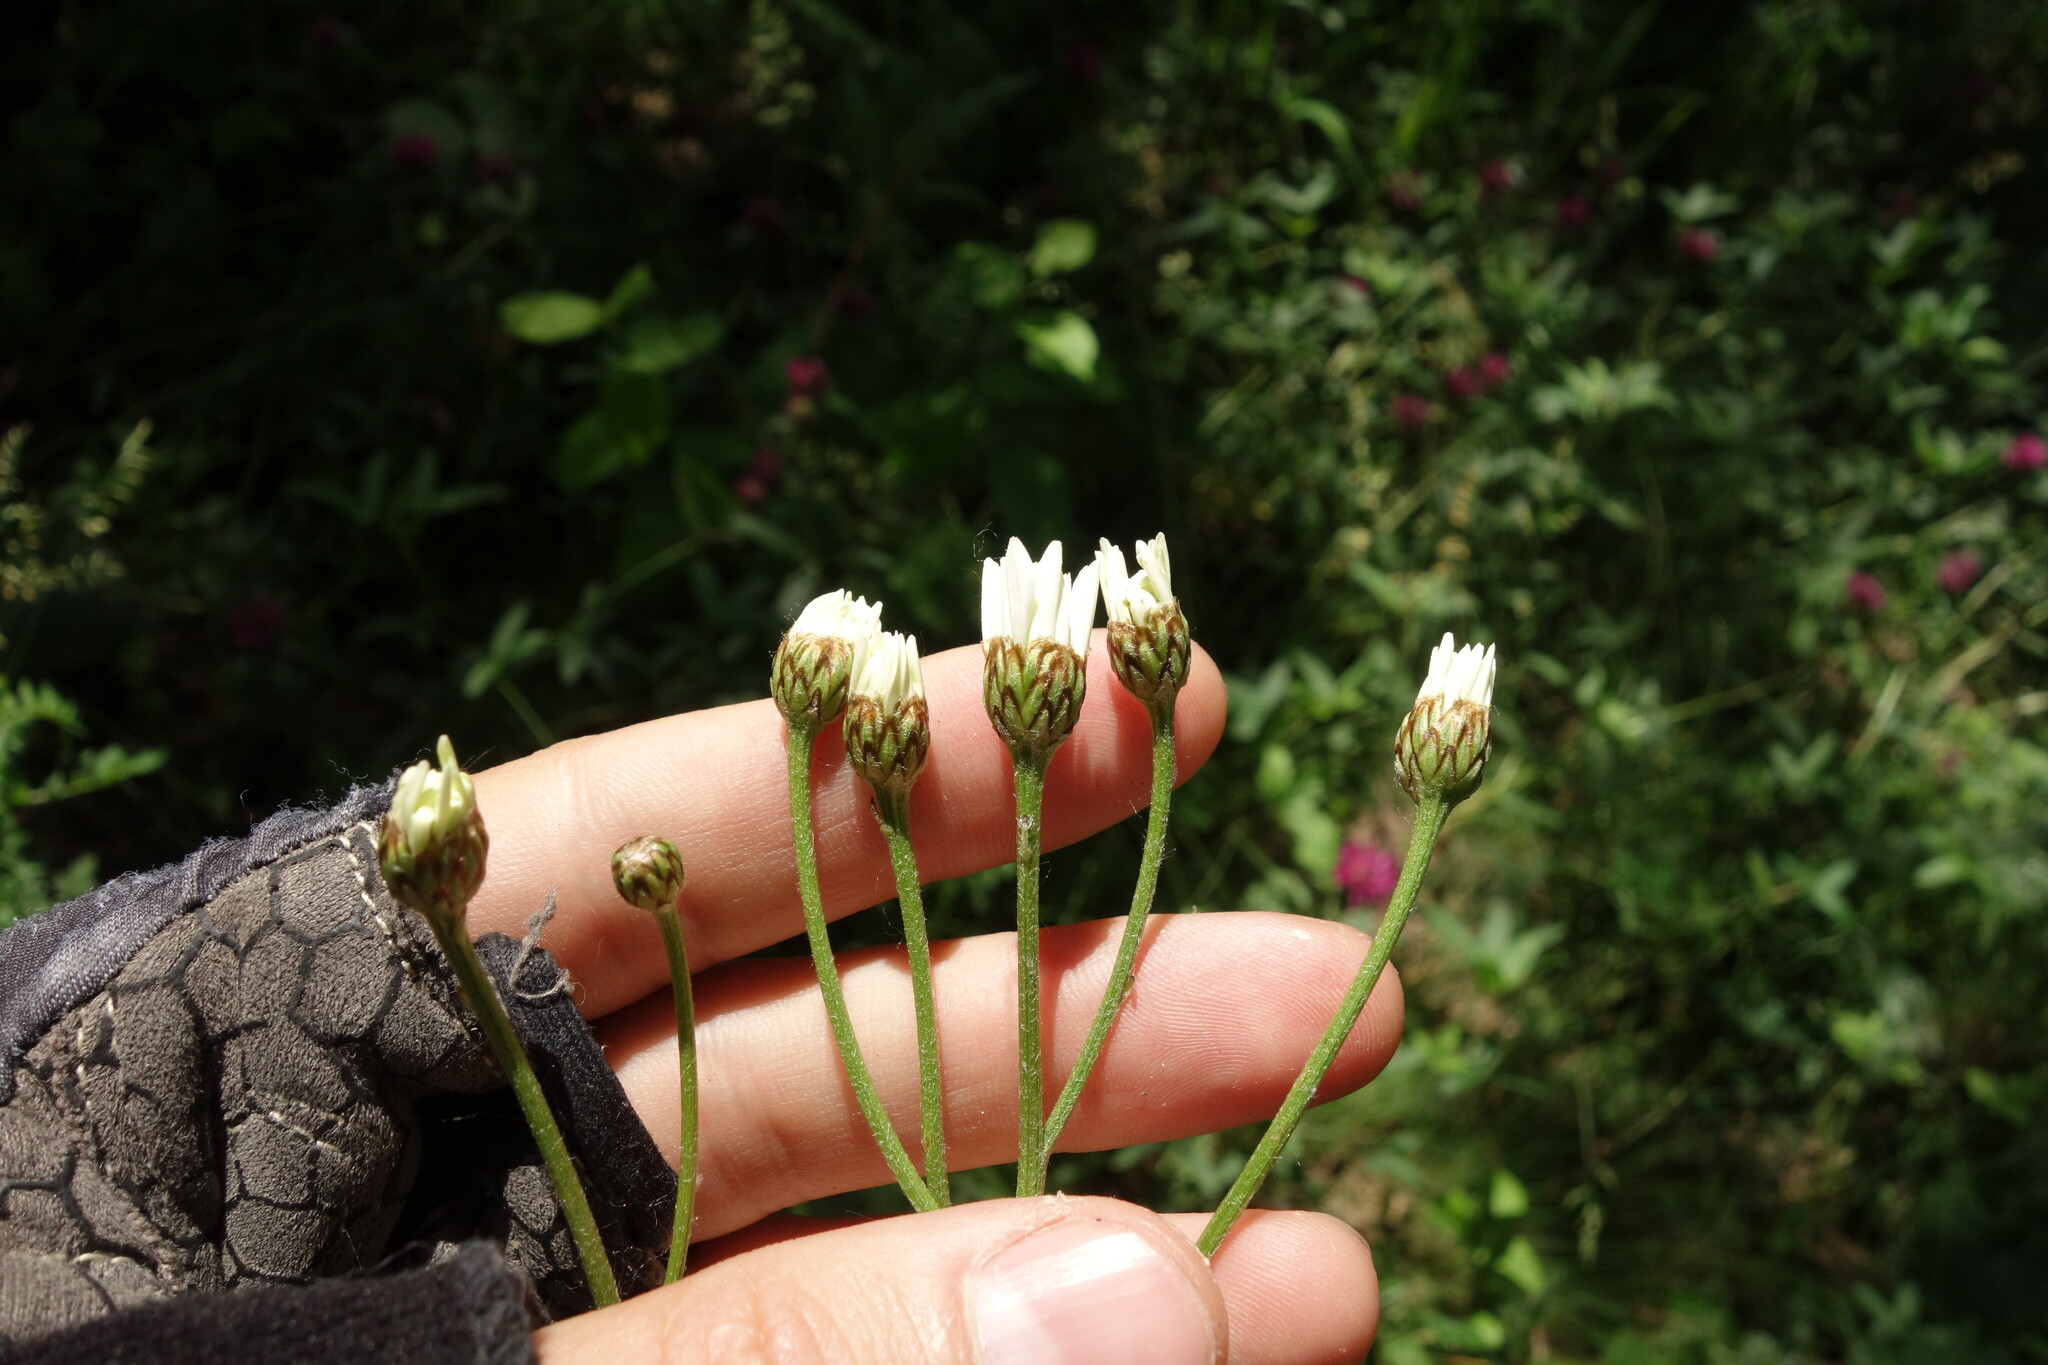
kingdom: Plantae
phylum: Tracheophyta
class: Magnoliopsida
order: Asterales
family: Asteraceae
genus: Tanacetum
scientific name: Tanacetum corymbosum
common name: Scentless feverfew
